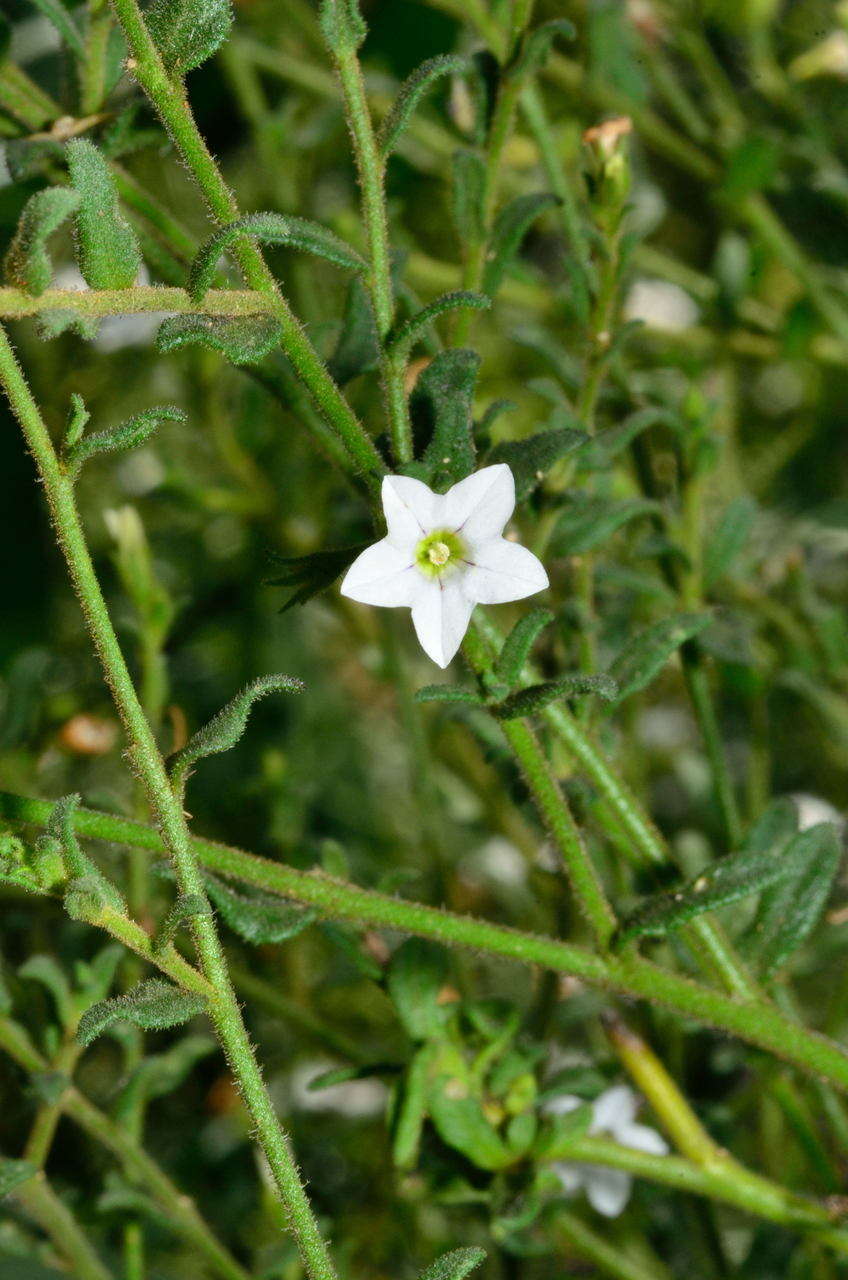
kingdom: Plantae
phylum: Tracheophyta
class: Magnoliopsida
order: Solanales
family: Solanaceae
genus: Cyphanthera
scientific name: Cyphanthera myosotidea
